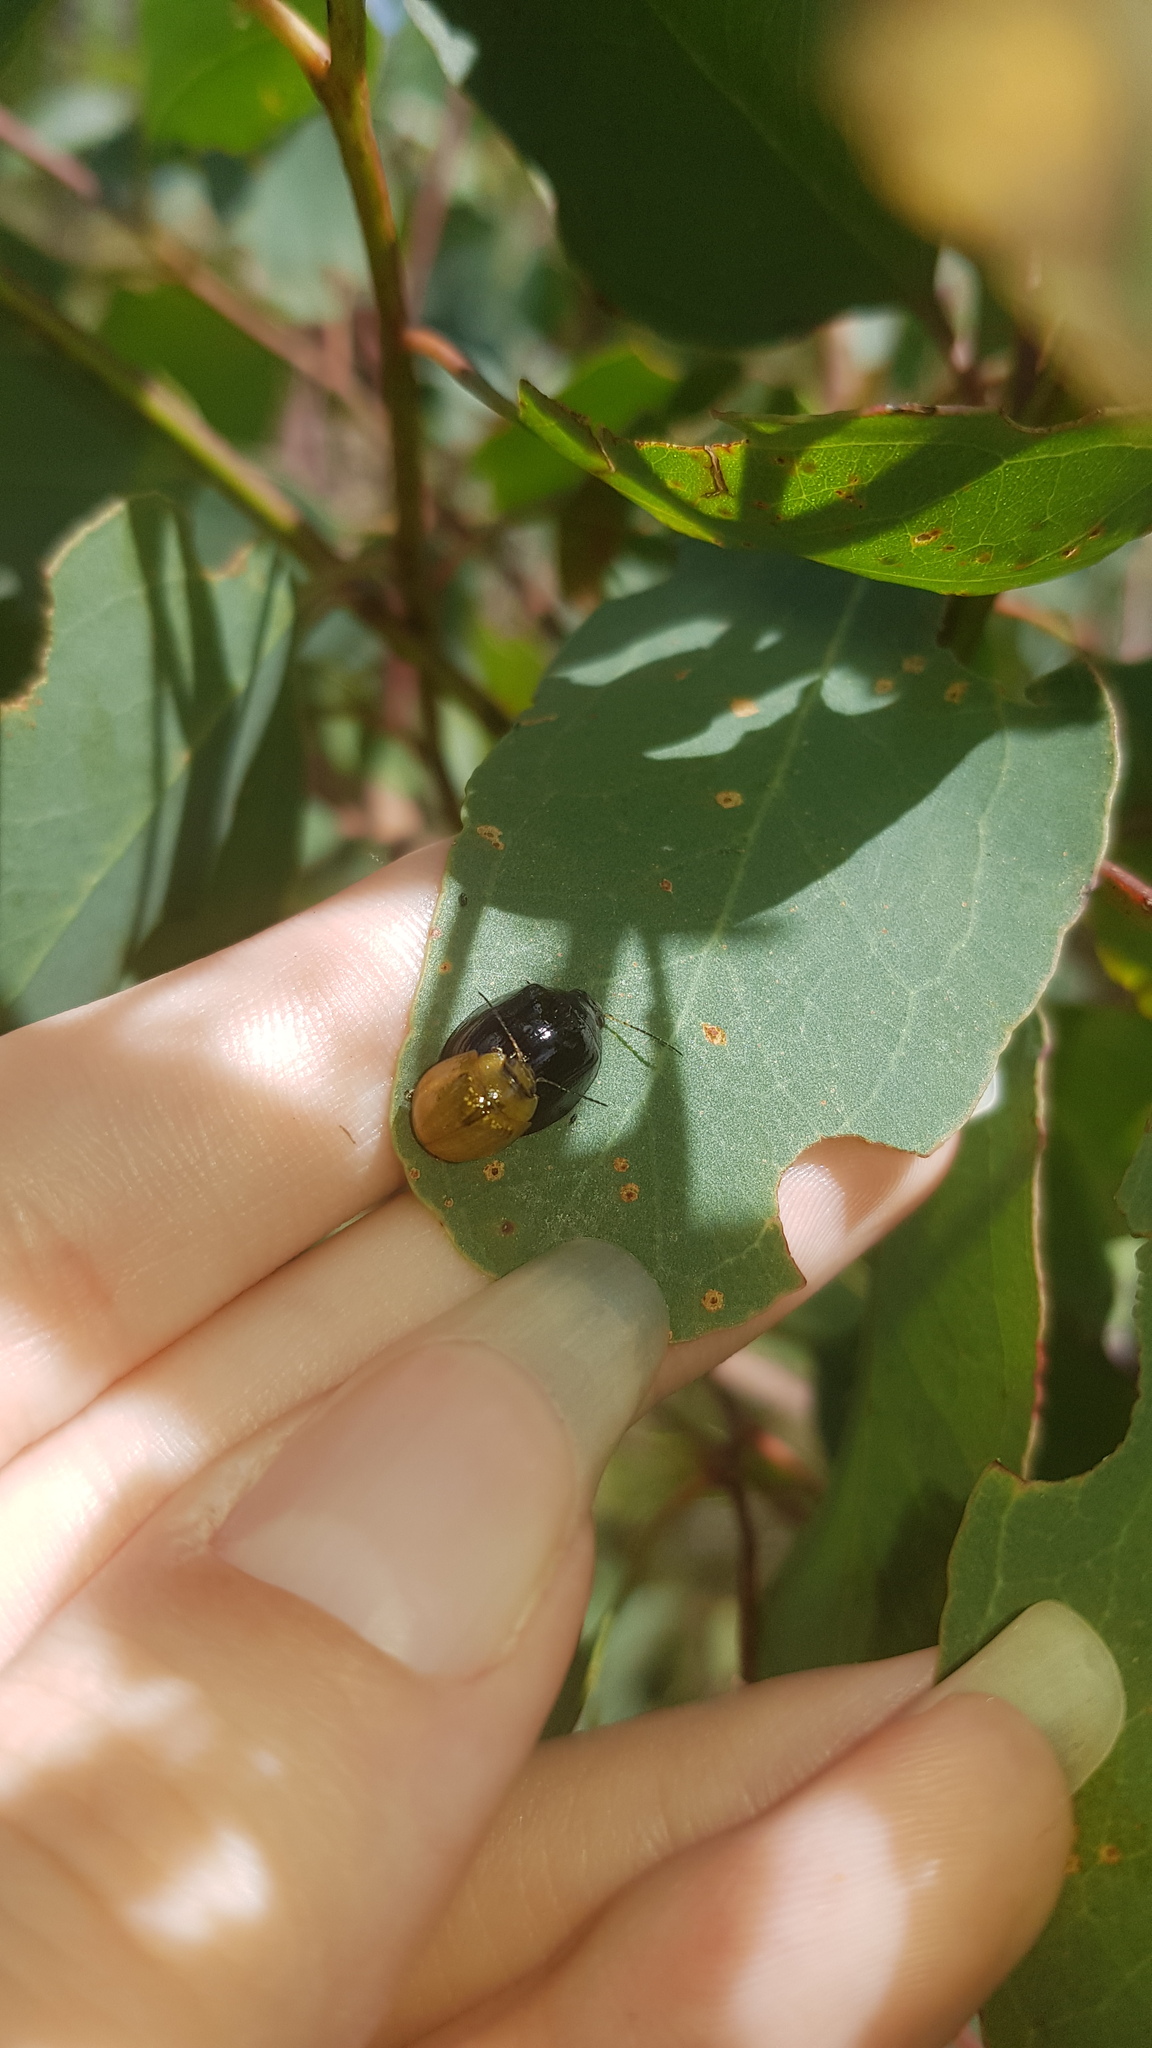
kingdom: Animalia
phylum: Arthropoda
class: Insecta
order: Coleoptera
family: Chrysomelidae
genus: Paropsisterna
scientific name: Paropsisterna cloelia
